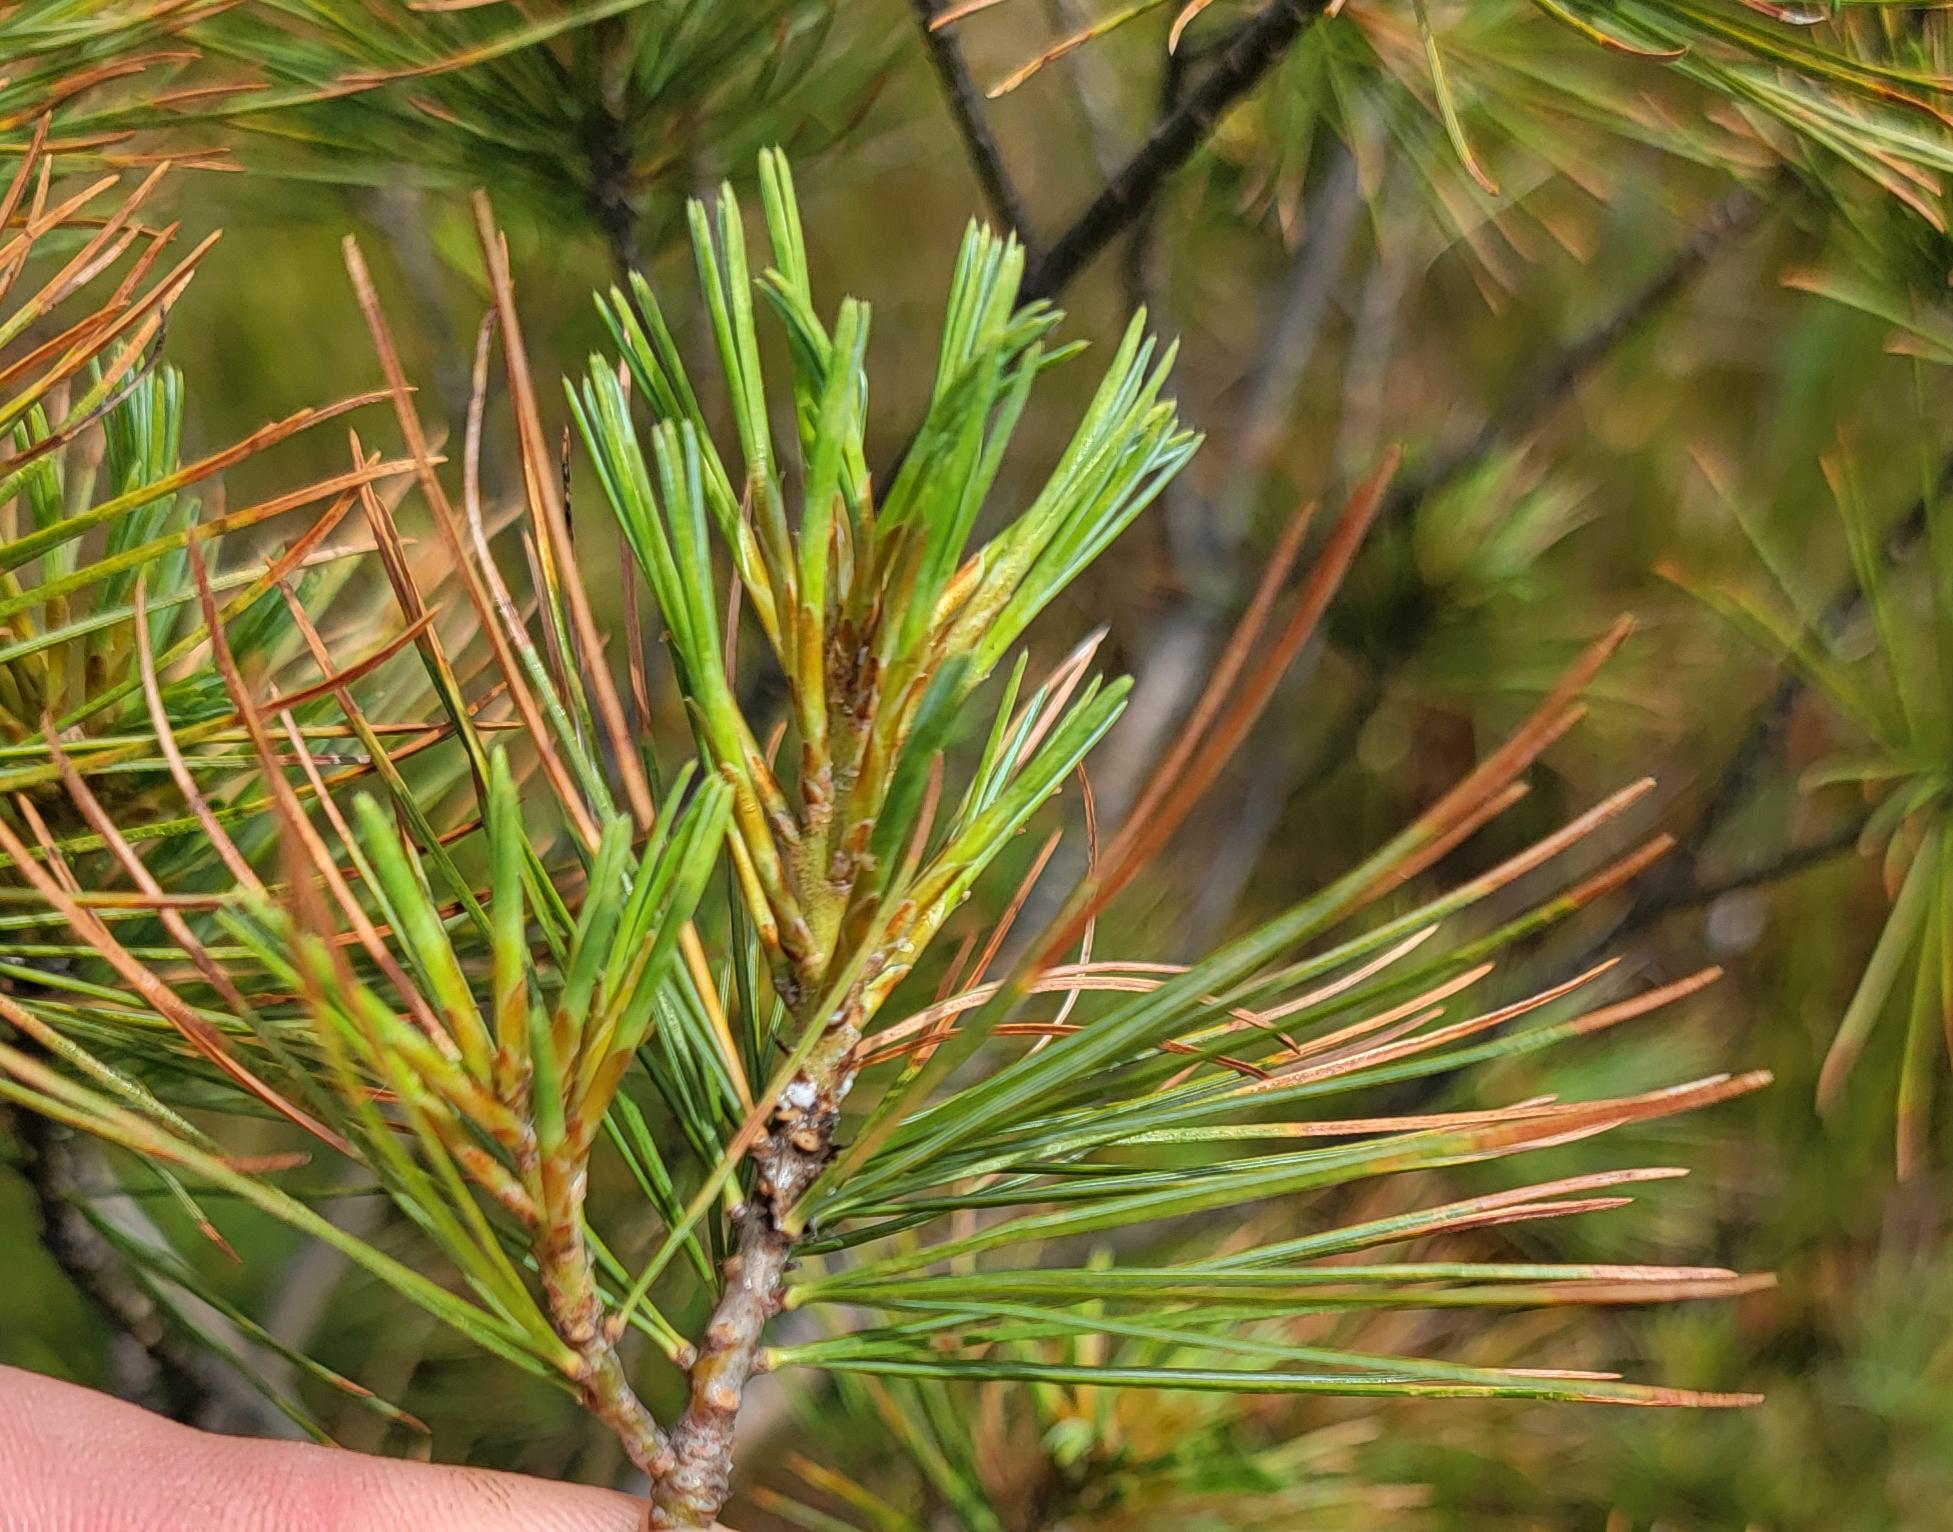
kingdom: Plantae
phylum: Tracheophyta
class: Pinopsida
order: Pinales
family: Pinaceae
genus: Pinus
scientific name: Pinus strobus
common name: Weymouth pine
